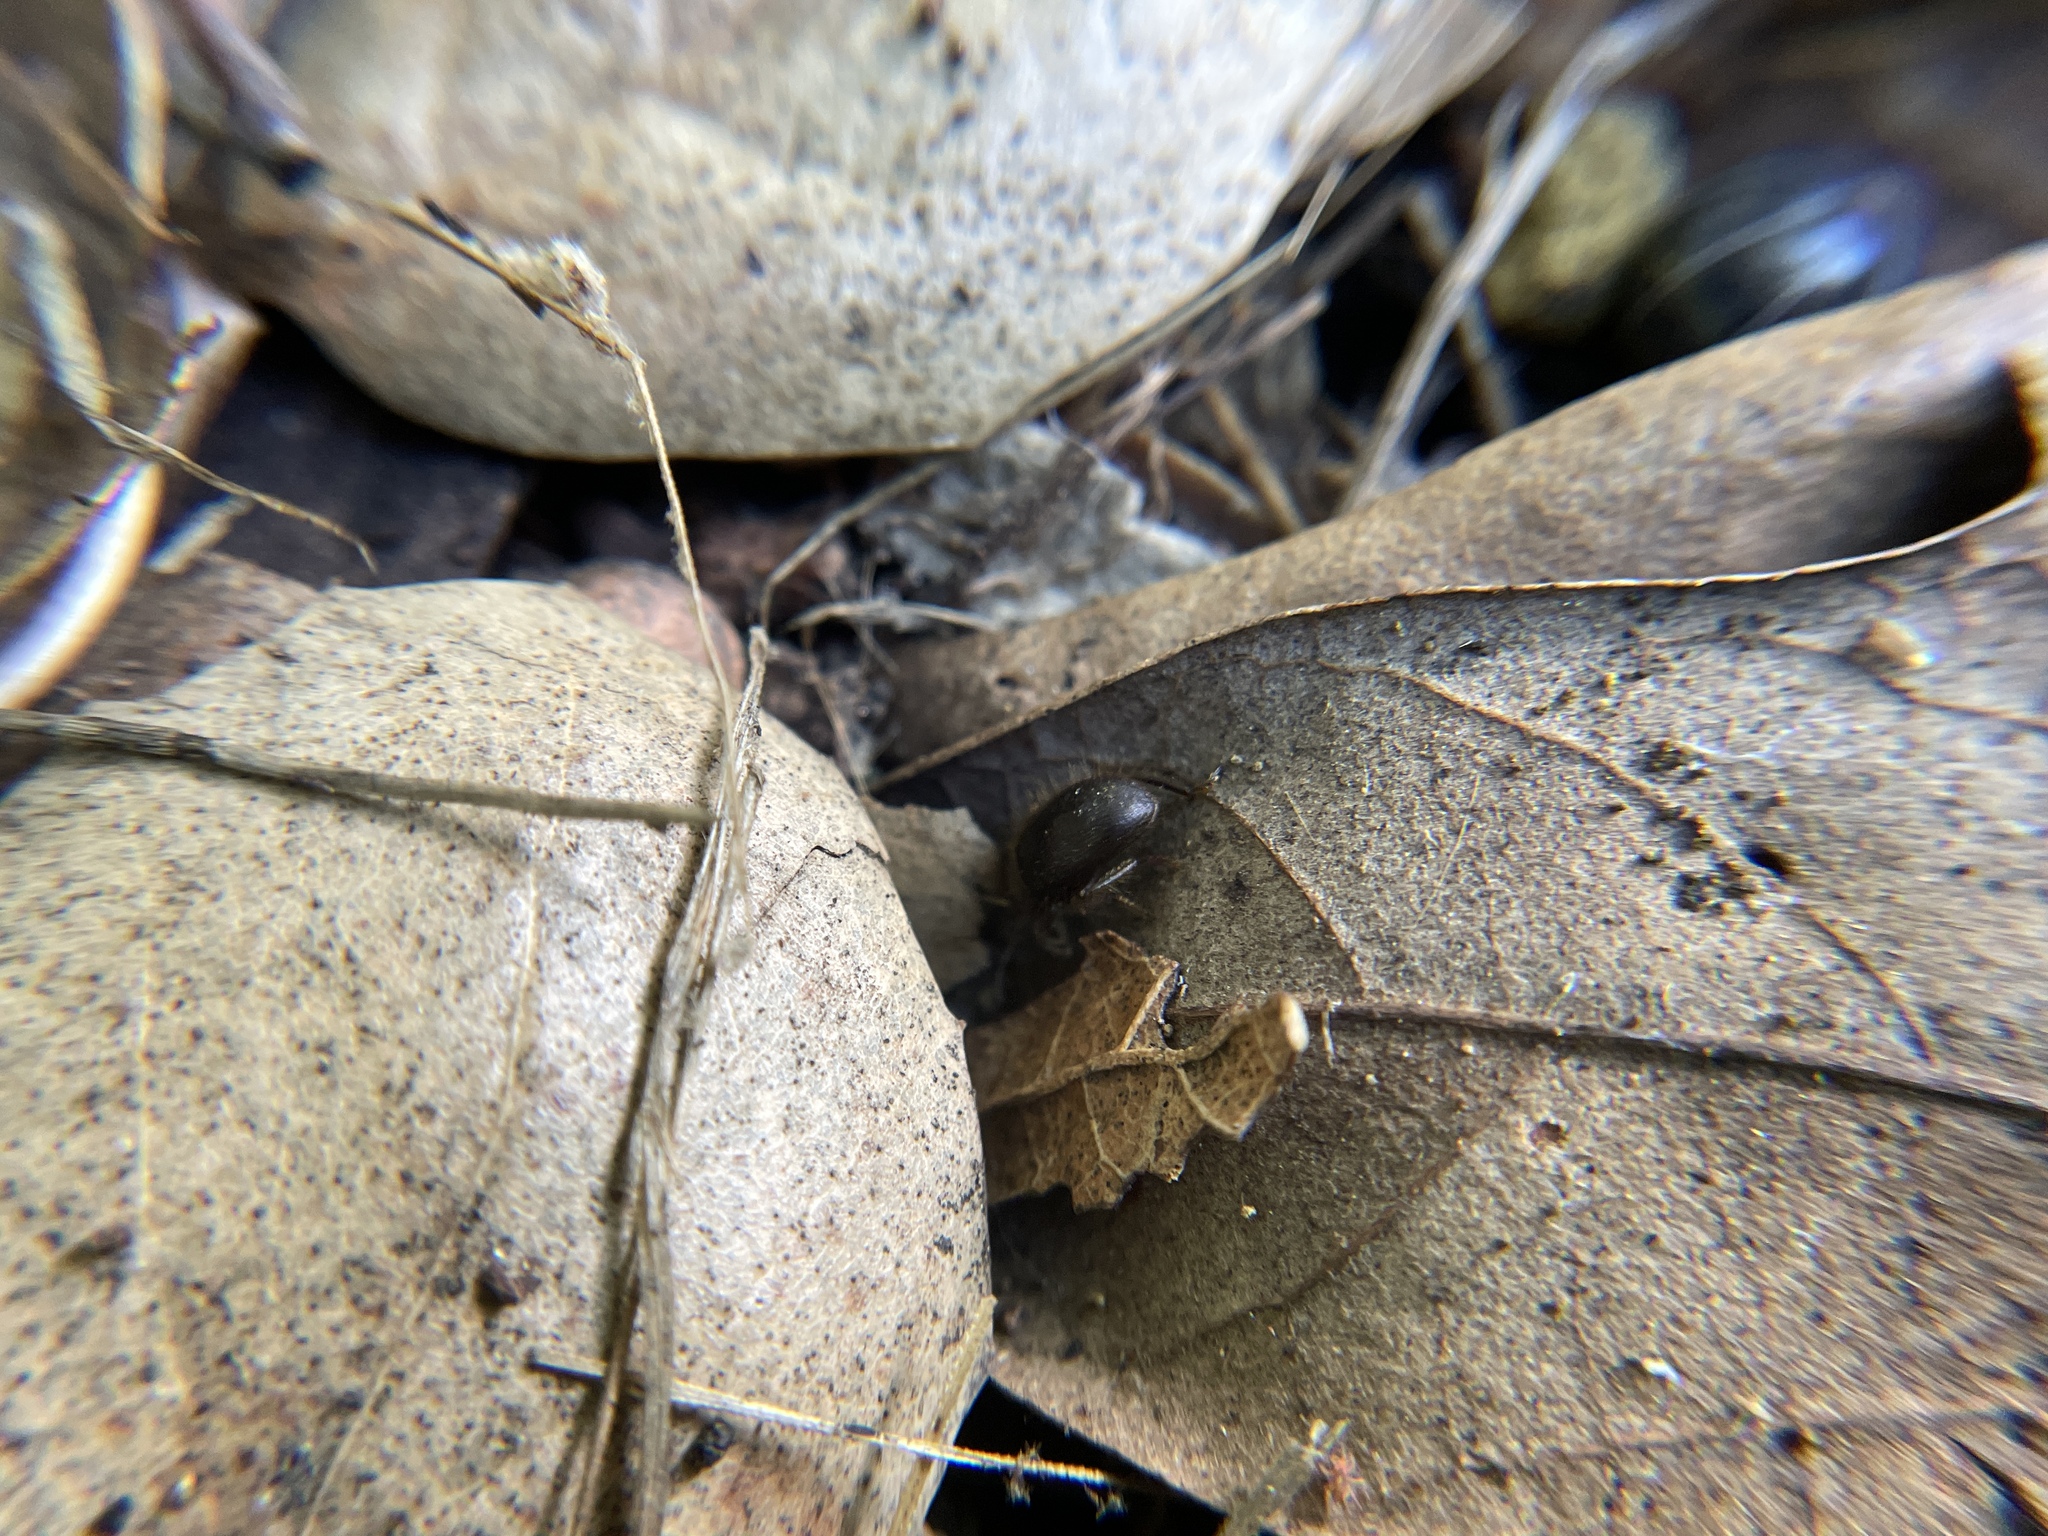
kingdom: Animalia
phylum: Arthropoda
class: Insecta
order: Coleoptera
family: Tenebrionidae
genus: Eleodes
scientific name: Eleodes littoralis
